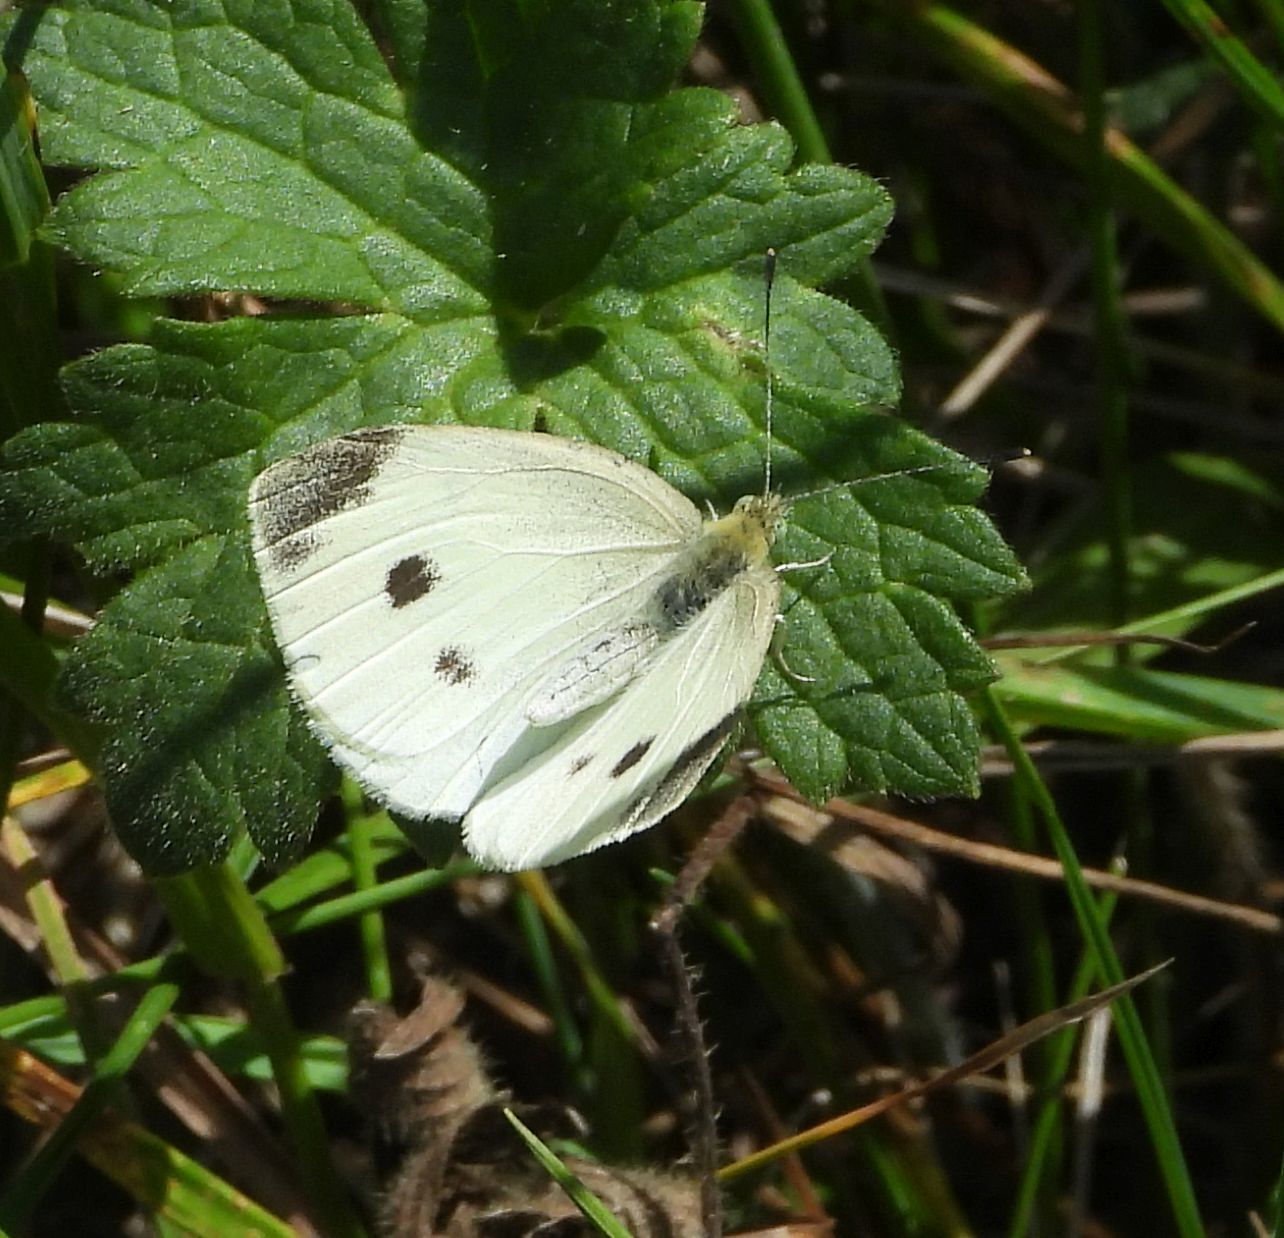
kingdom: Animalia
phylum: Arthropoda
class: Insecta
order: Lepidoptera
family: Pieridae
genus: Pieris
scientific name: Pieris rapae
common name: Small white
